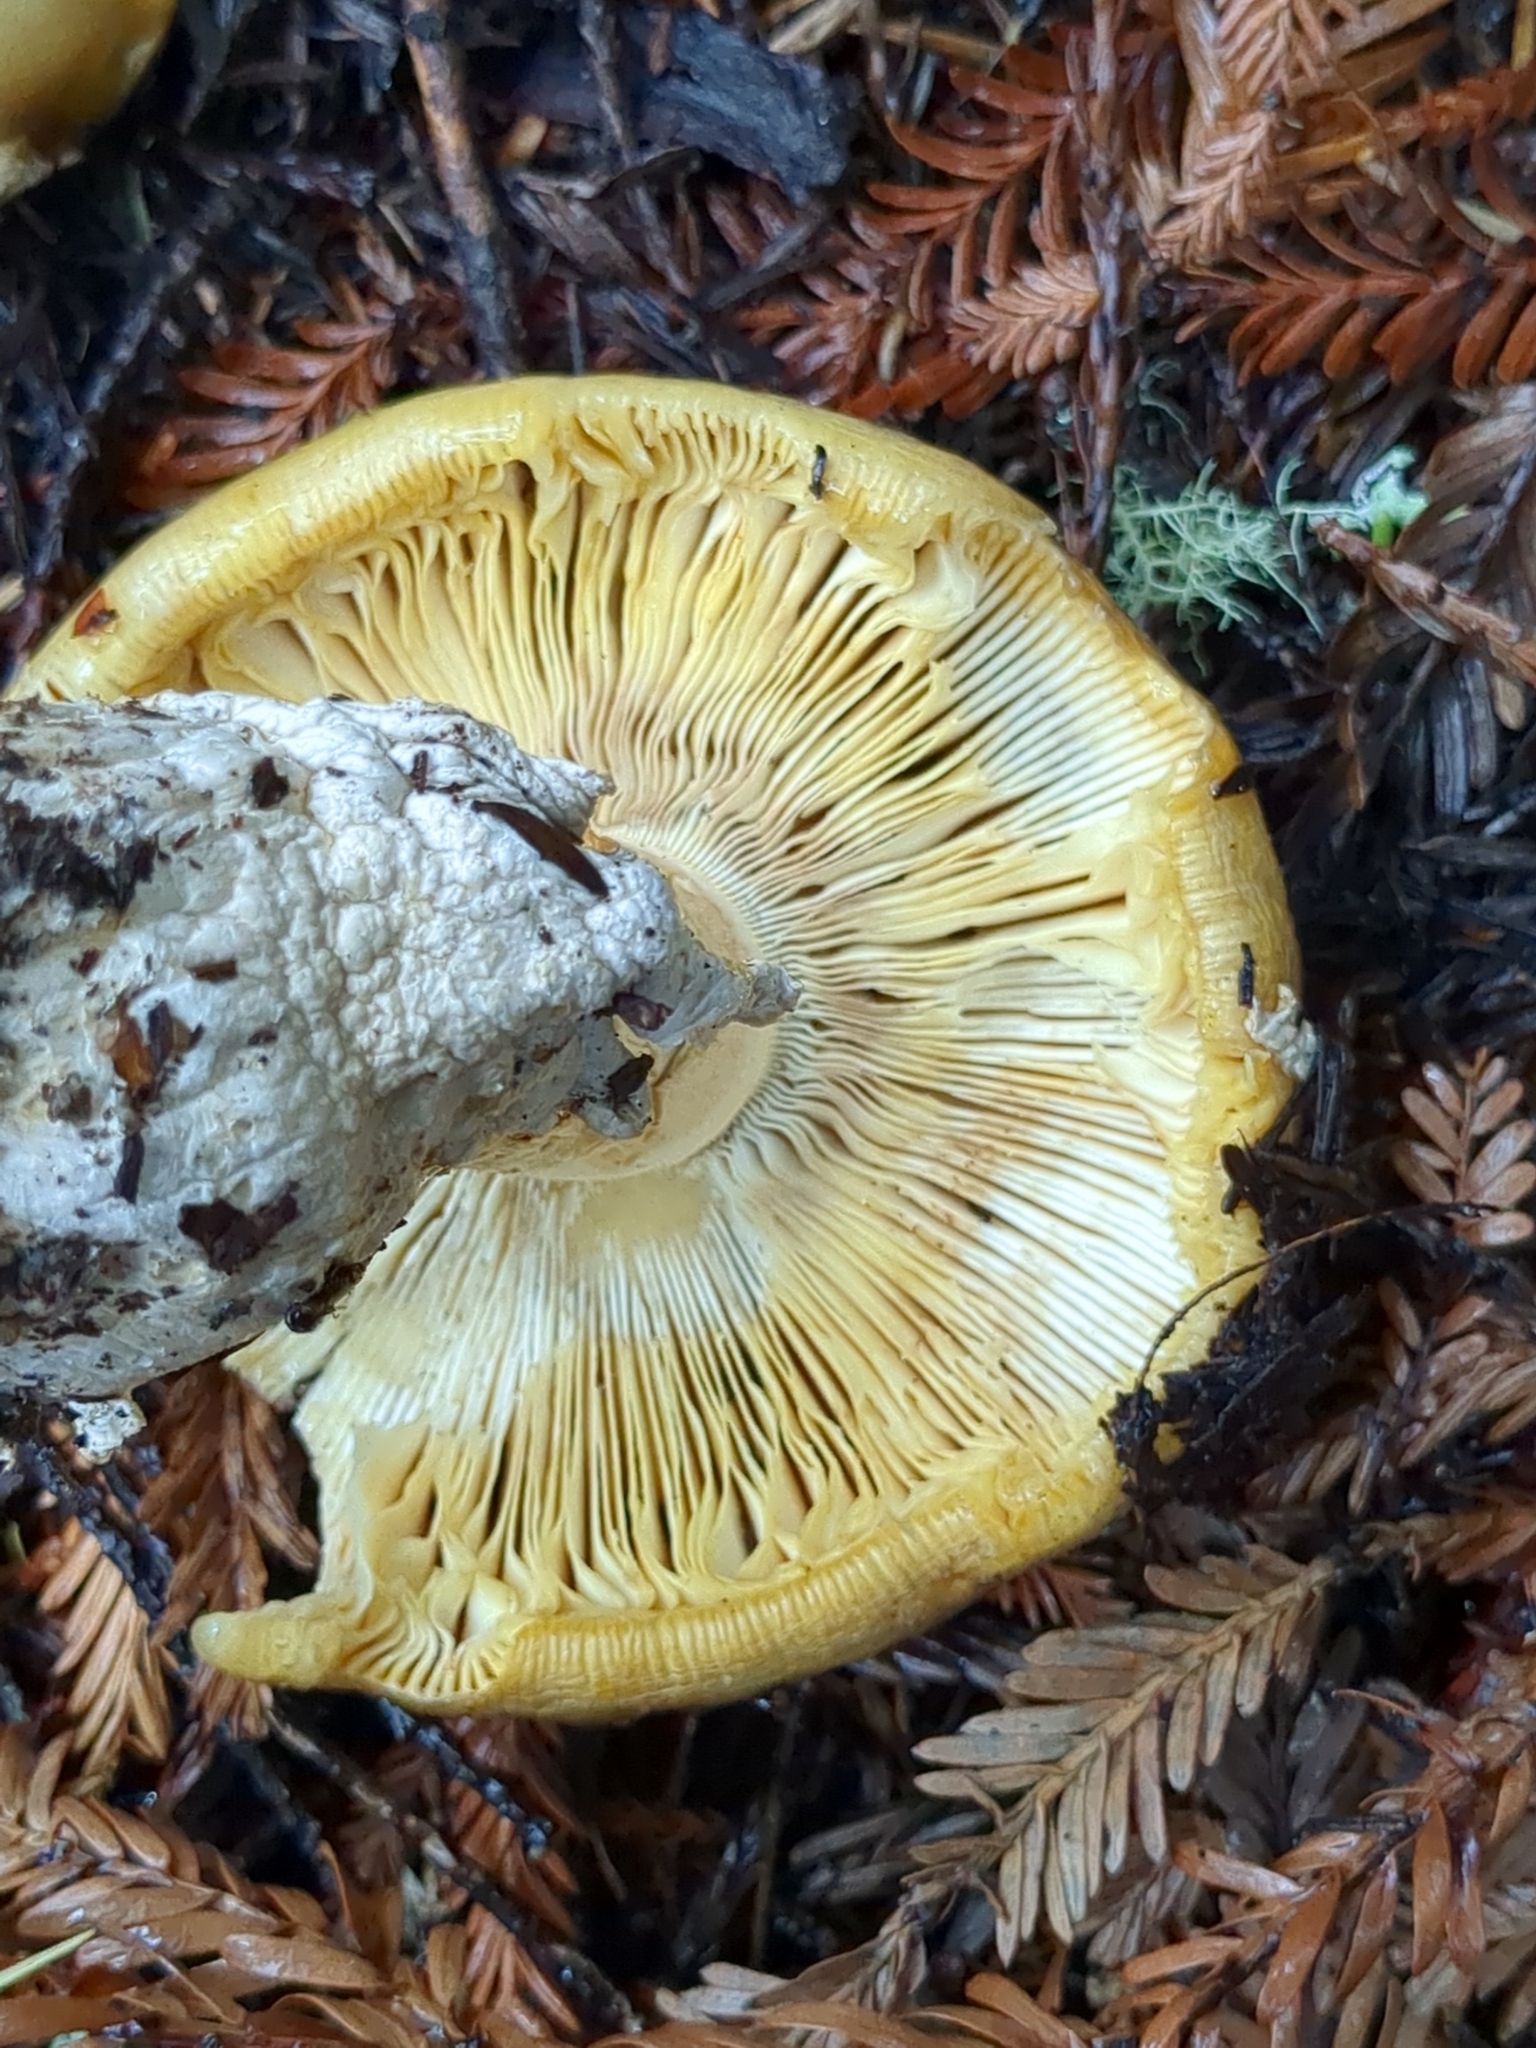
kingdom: Fungi
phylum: Basidiomycota
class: Agaricomycetes
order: Agaricales
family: Amanitaceae
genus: Amanita
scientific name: Amanita calyptroderma
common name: Coccora
